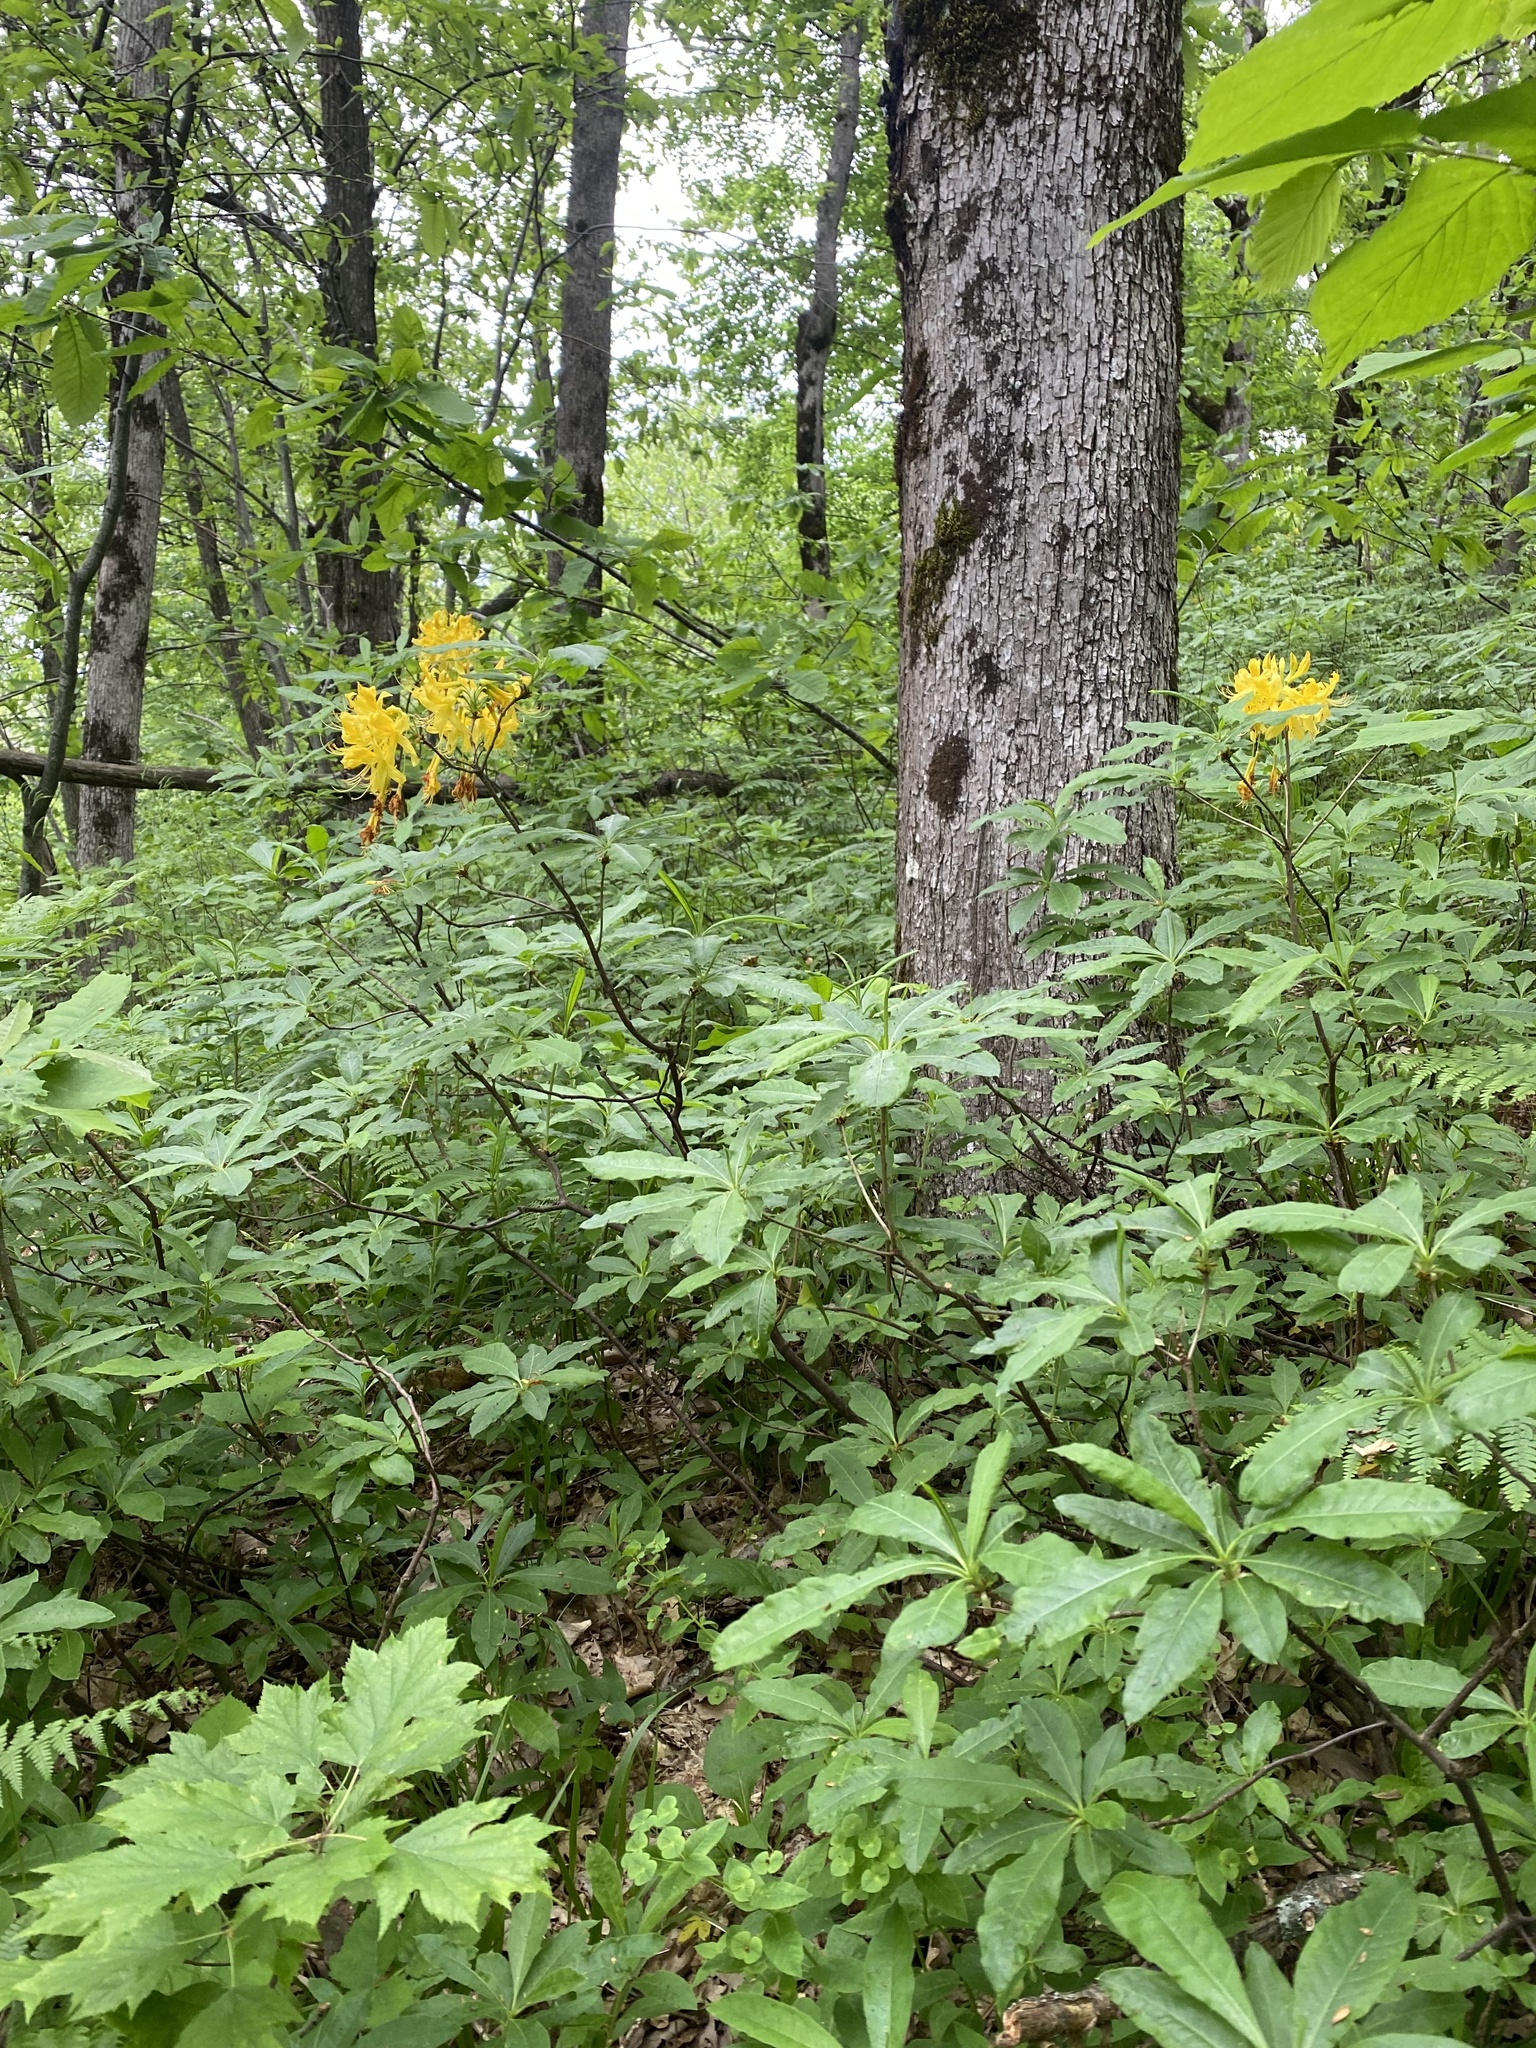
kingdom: Plantae
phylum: Tracheophyta
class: Magnoliopsida
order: Ericales
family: Ericaceae
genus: Rhododendron
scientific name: Rhododendron luteum
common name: Yellow azalea
